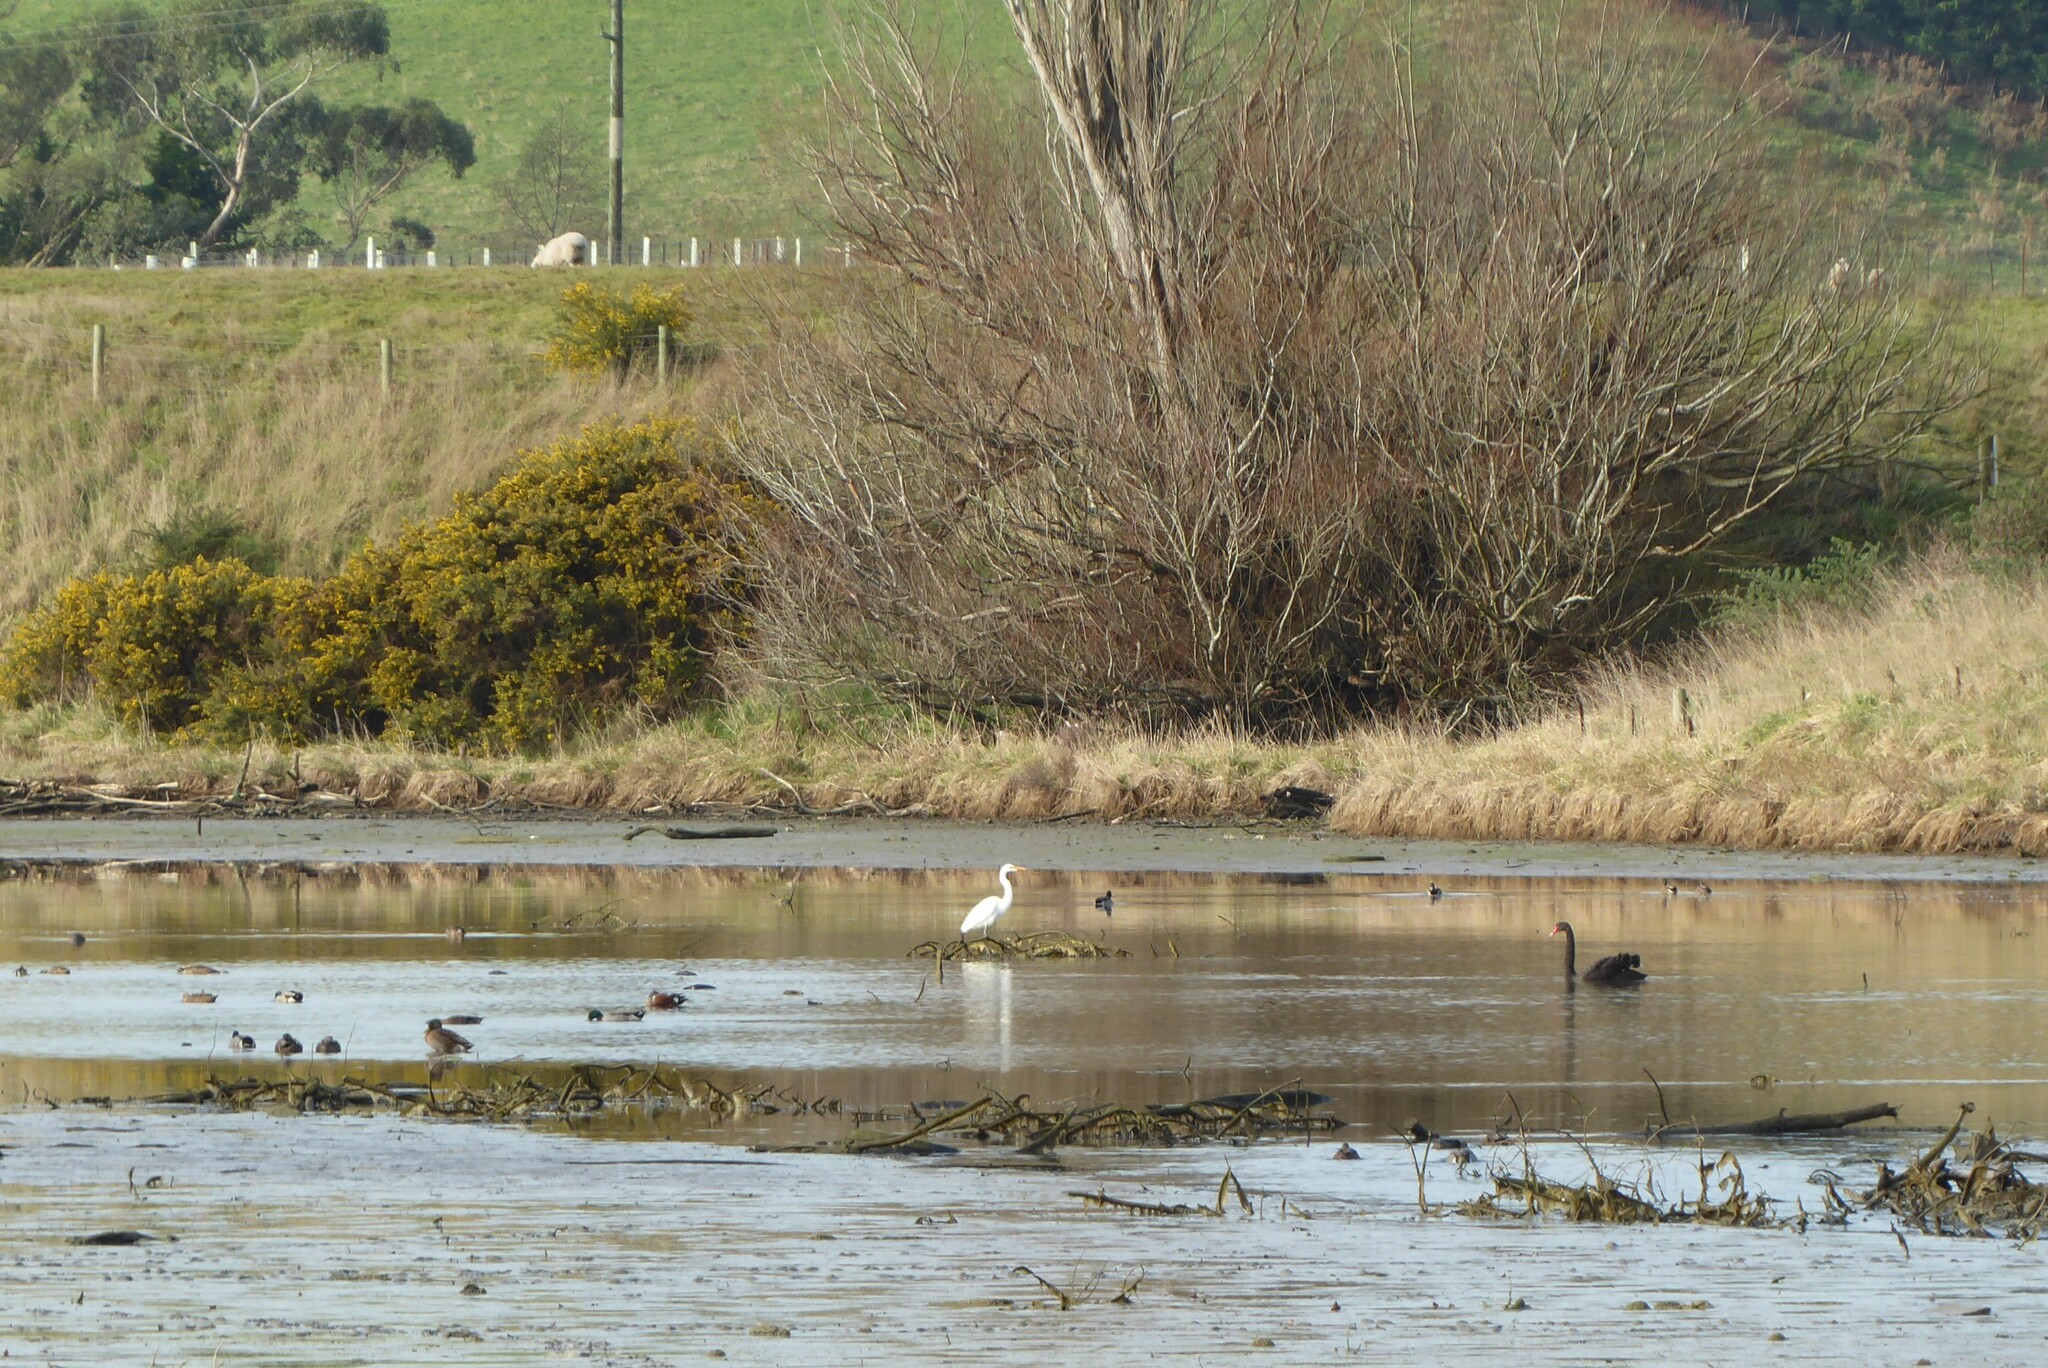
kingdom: Animalia
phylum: Chordata
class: Aves
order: Pelecaniformes
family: Ardeidae
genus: Ardea
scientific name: Ardea modesta
